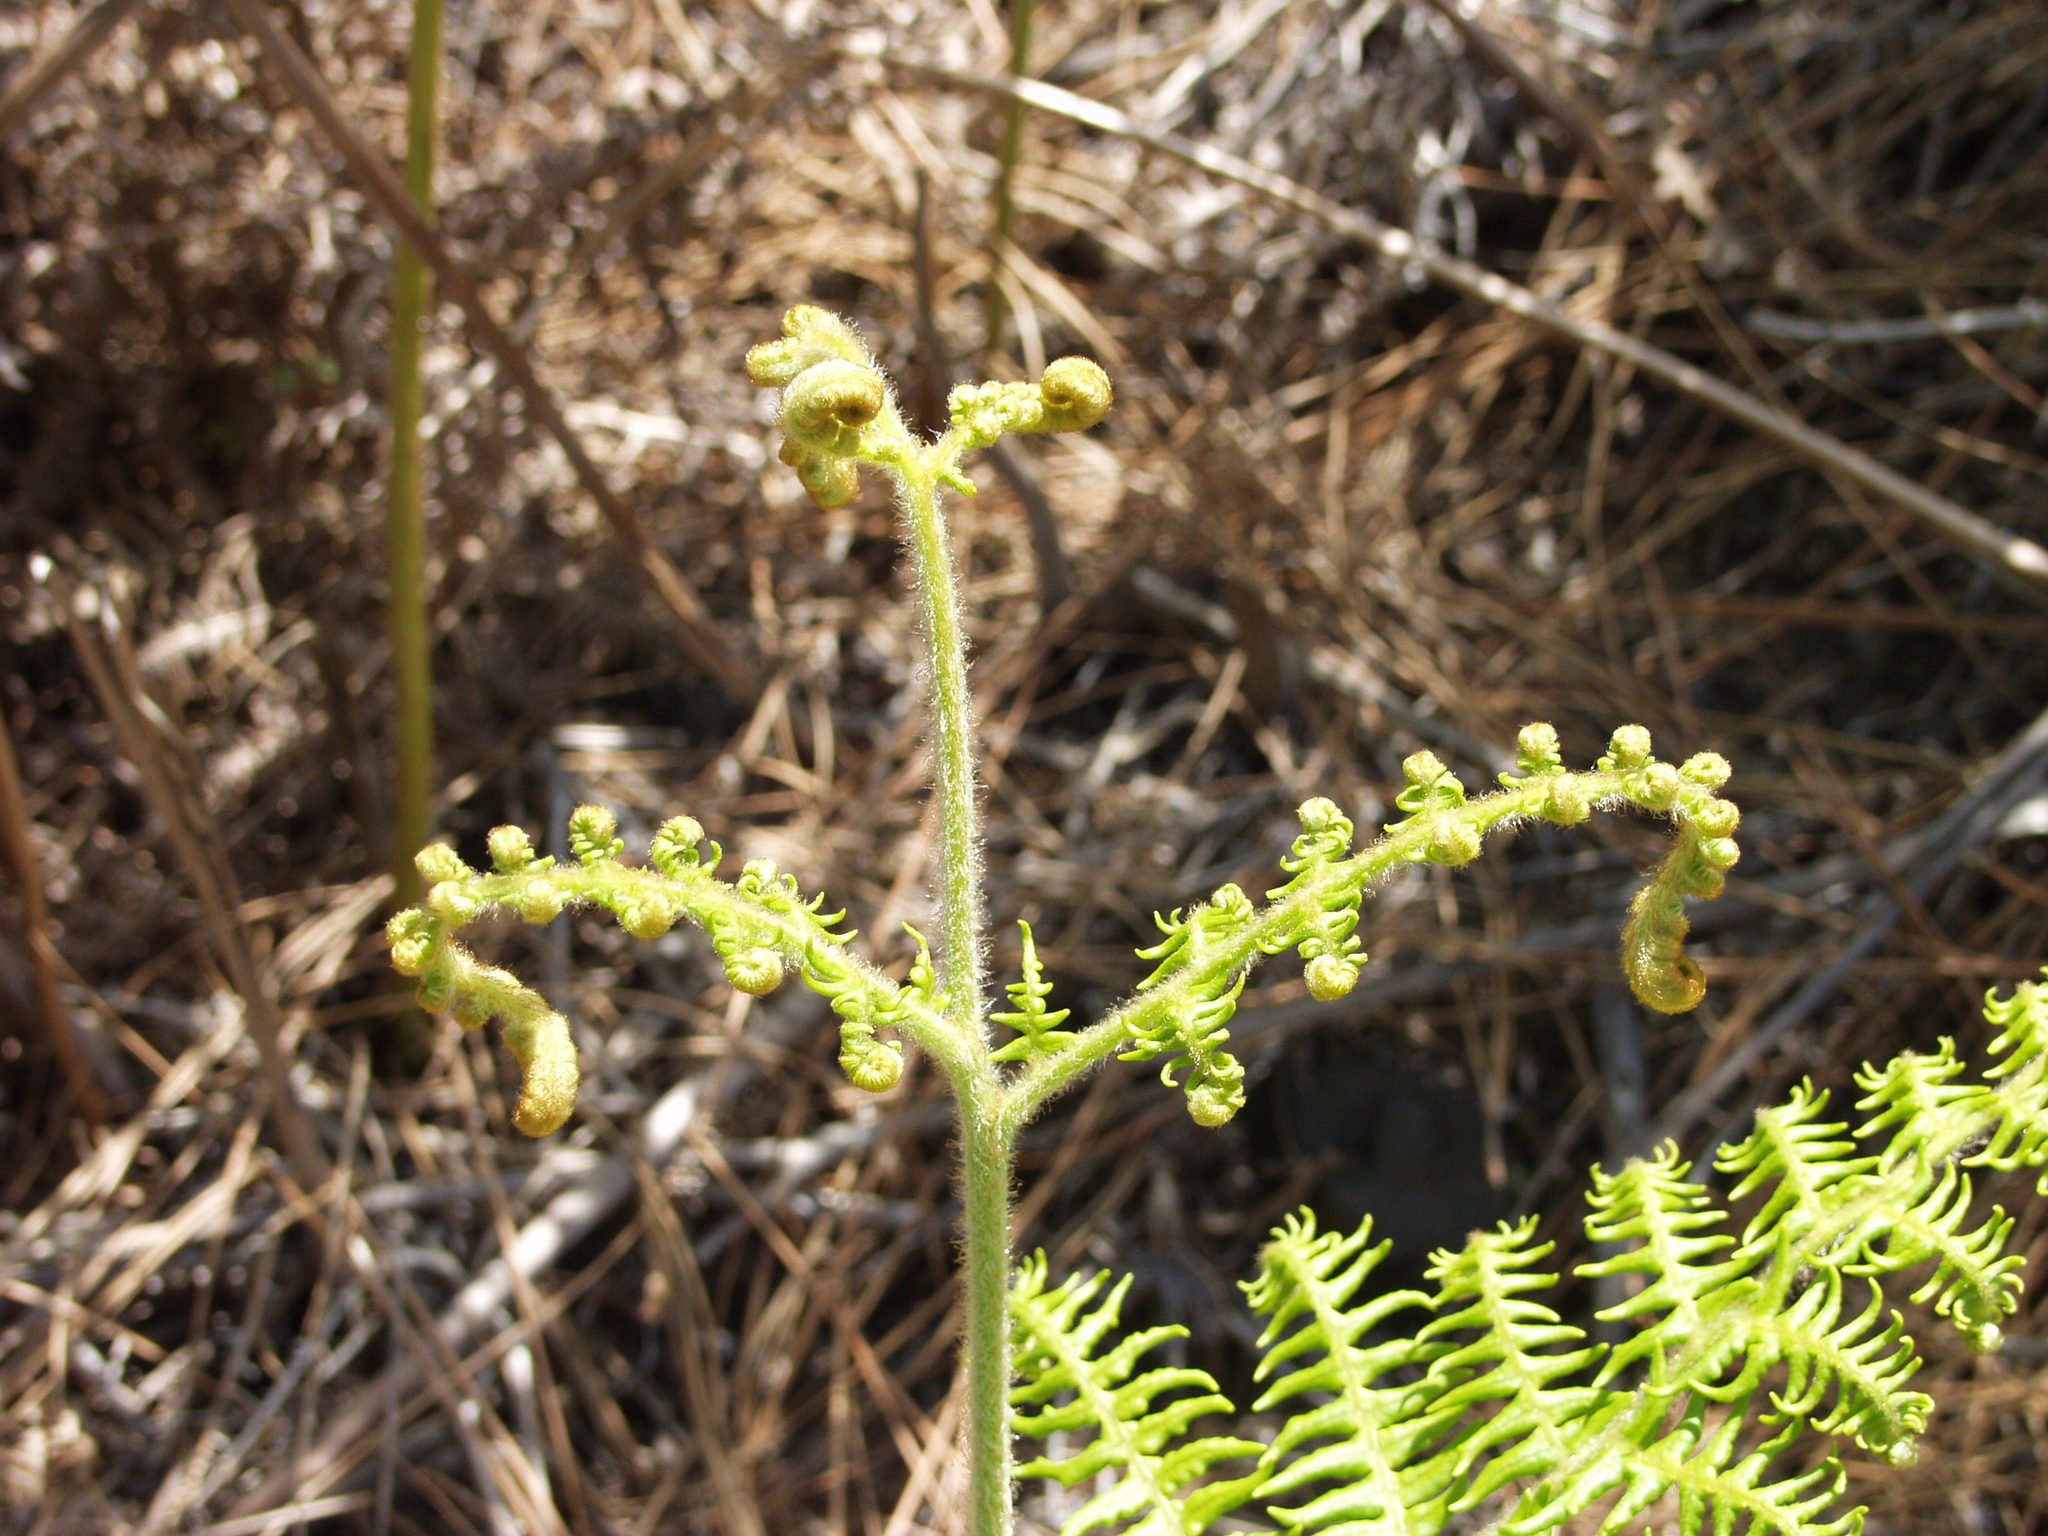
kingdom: Plantae
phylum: Tracheophyta
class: Polypodiopsida
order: Polypodiales
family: Dennstaedtiaceae
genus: Pteridium
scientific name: Pteridium aquilinum
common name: Bracken
